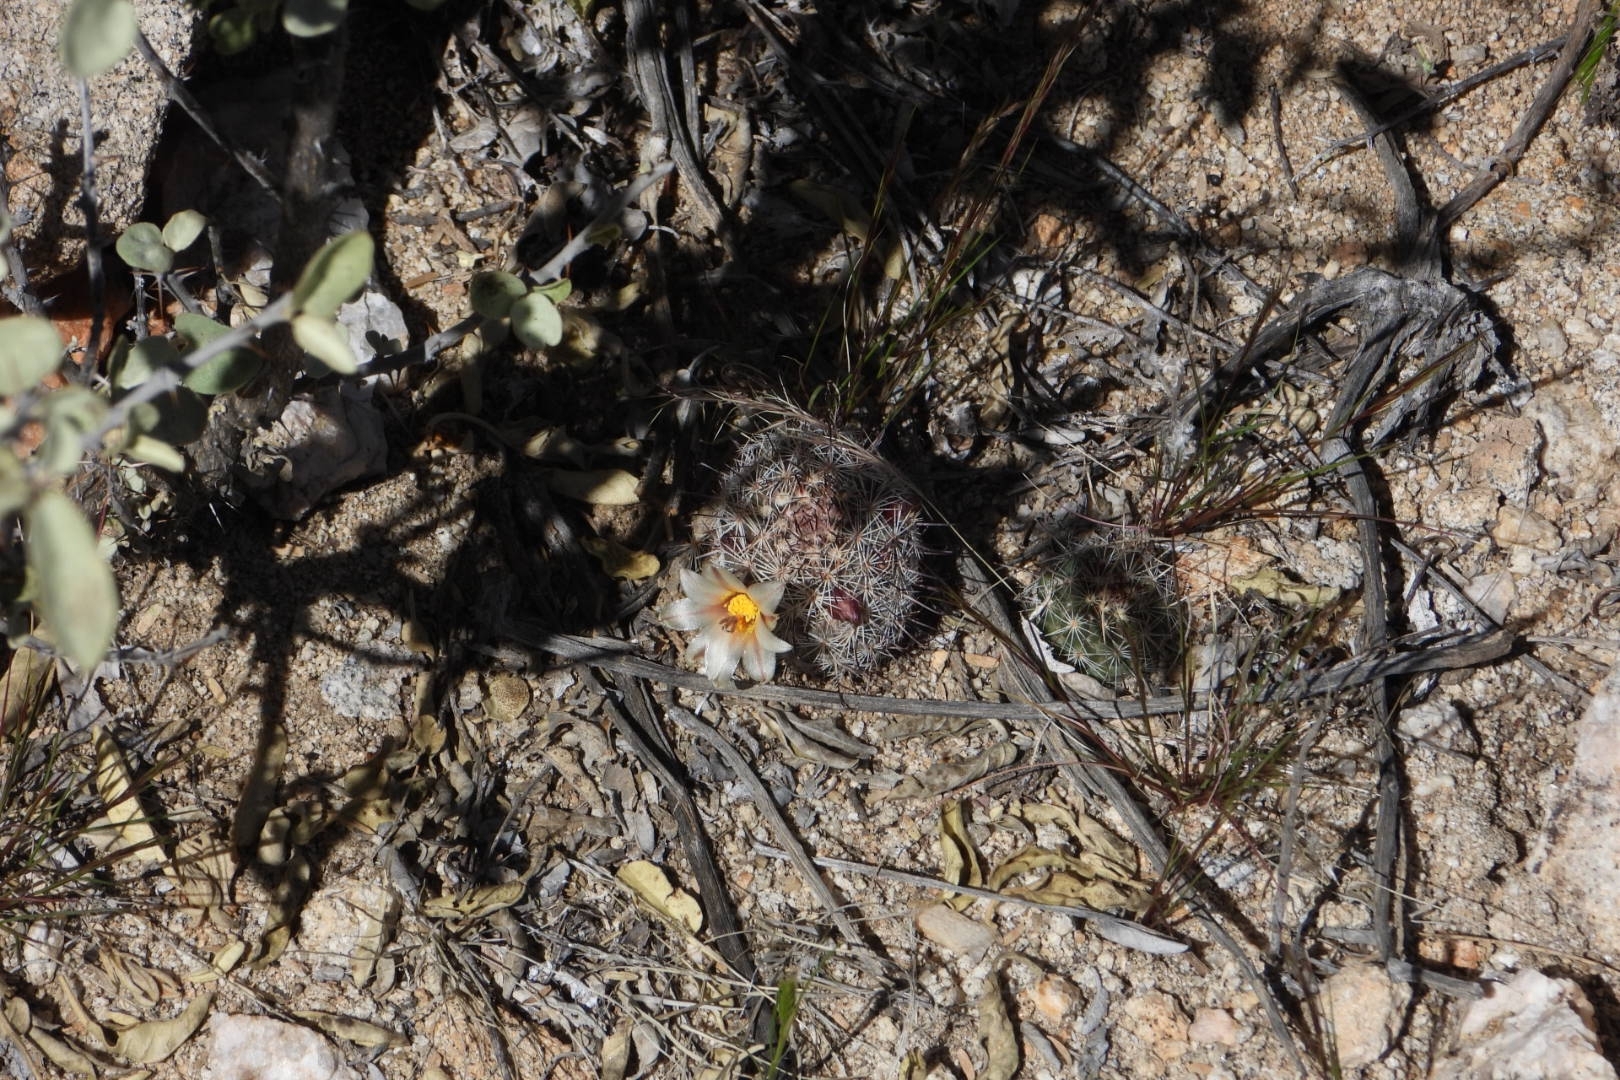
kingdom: Plantae
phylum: Tracheophyta
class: Magnoliopsida
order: Caryophyllales
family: Cactaceae
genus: Cochemiea
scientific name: Cochemiea dioica
